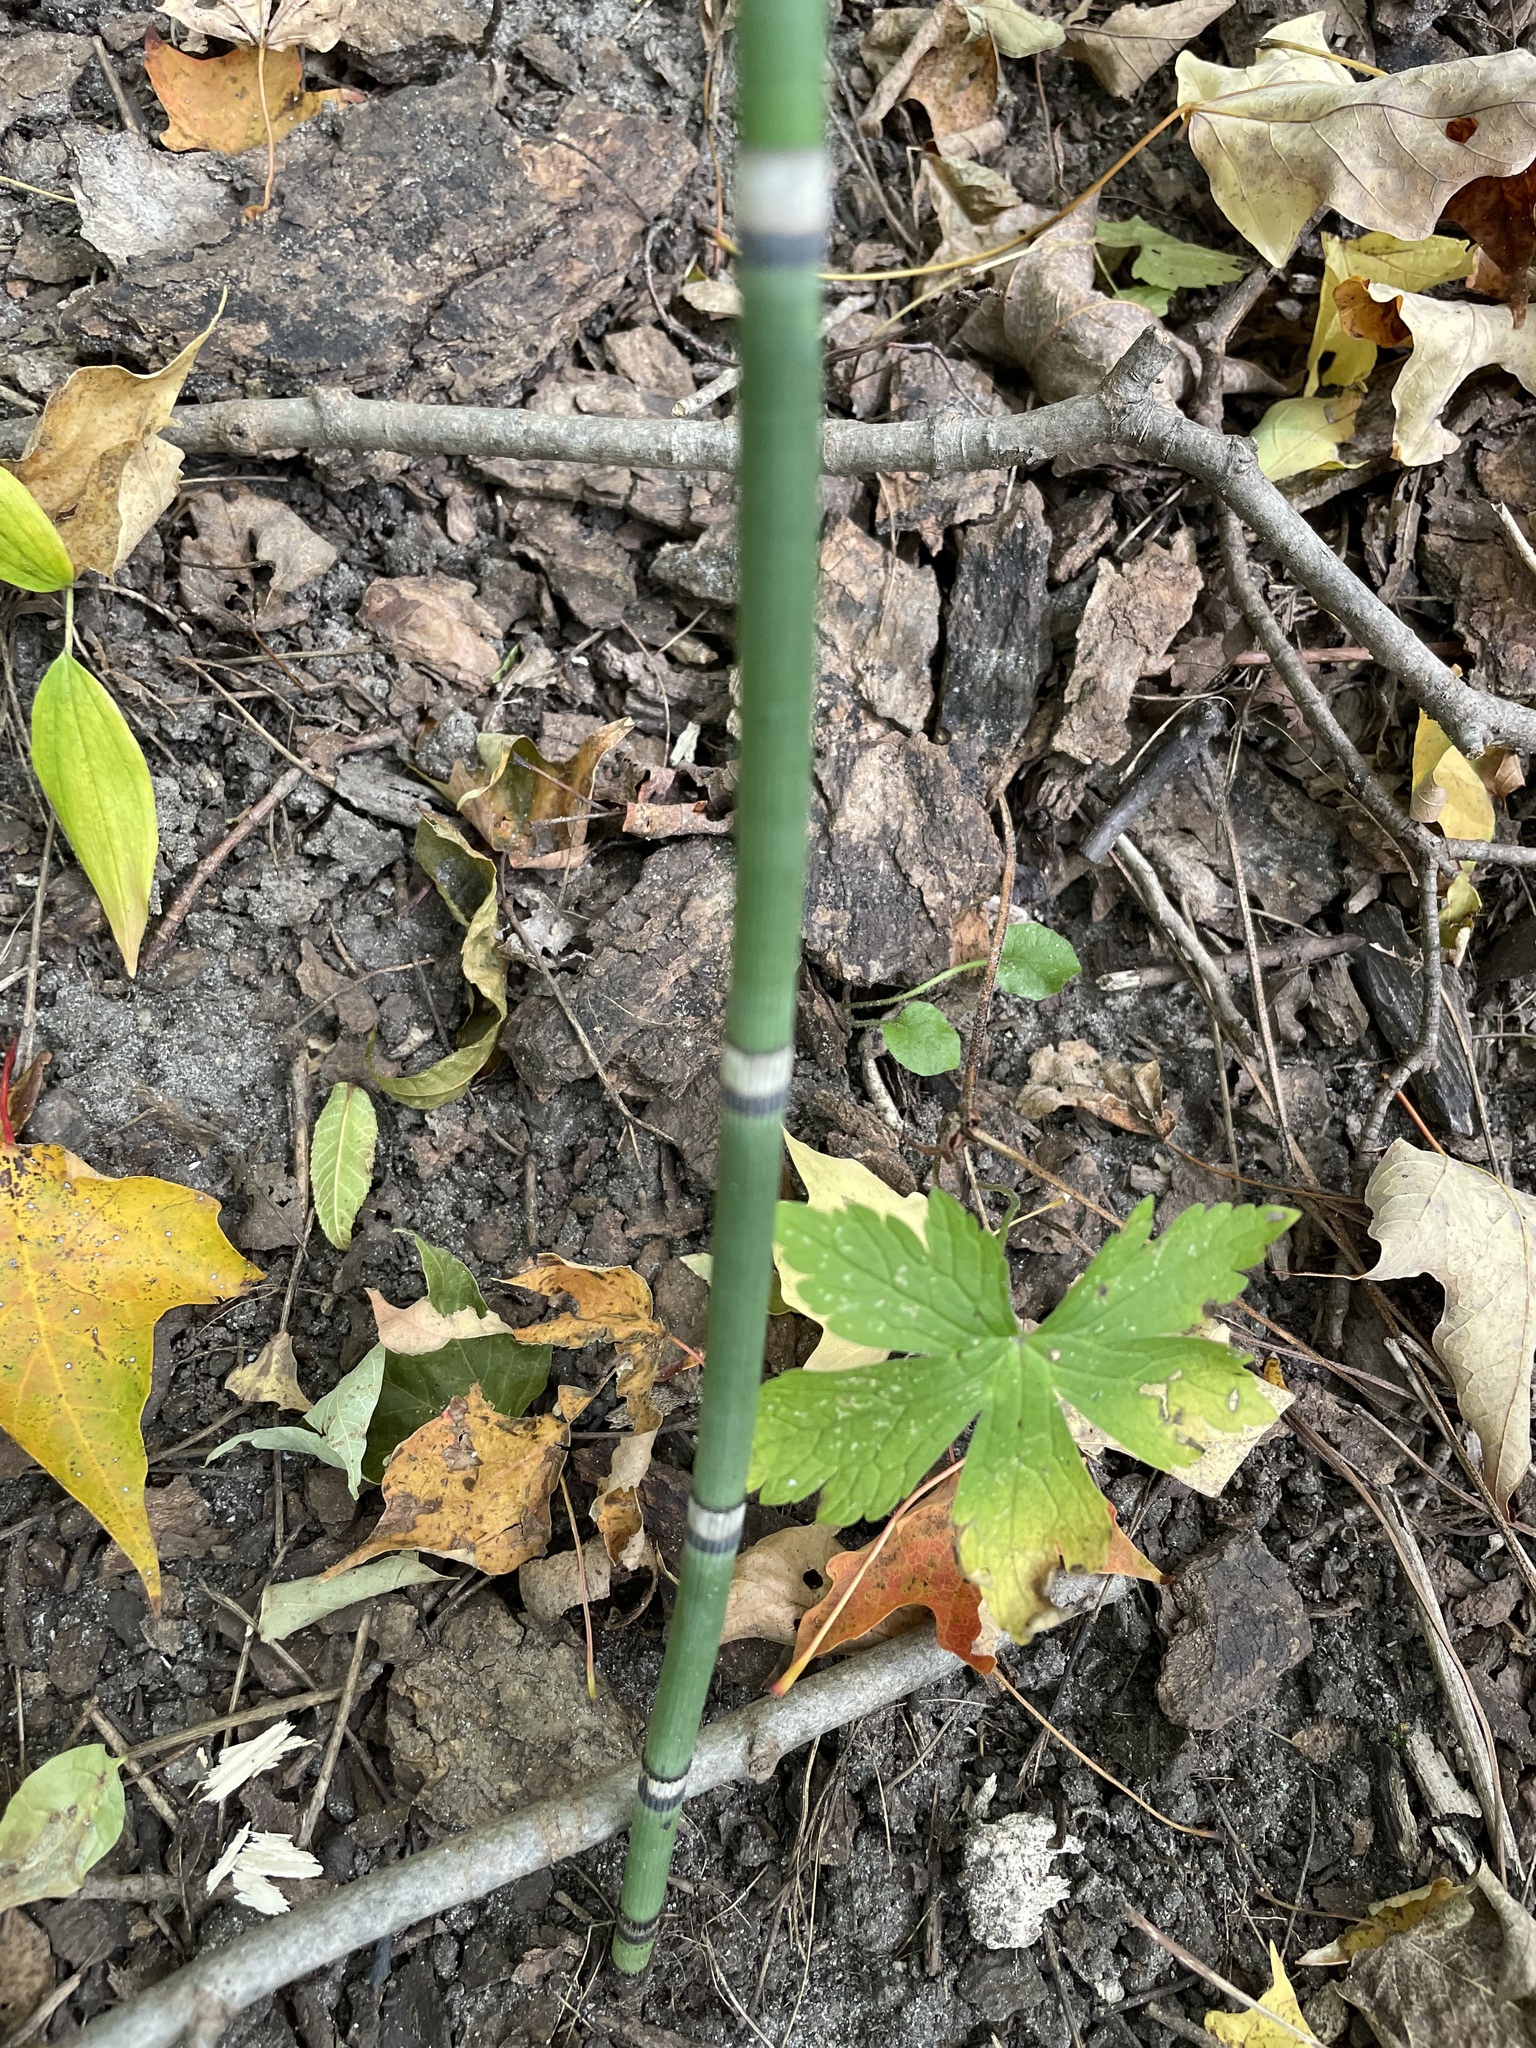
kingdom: Plantae
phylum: Tracheophyta
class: Polypodiopsida
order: Equisetales
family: Equisetaceae
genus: Equisetum
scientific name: Equisetum hyemale
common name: Rough horsetail
